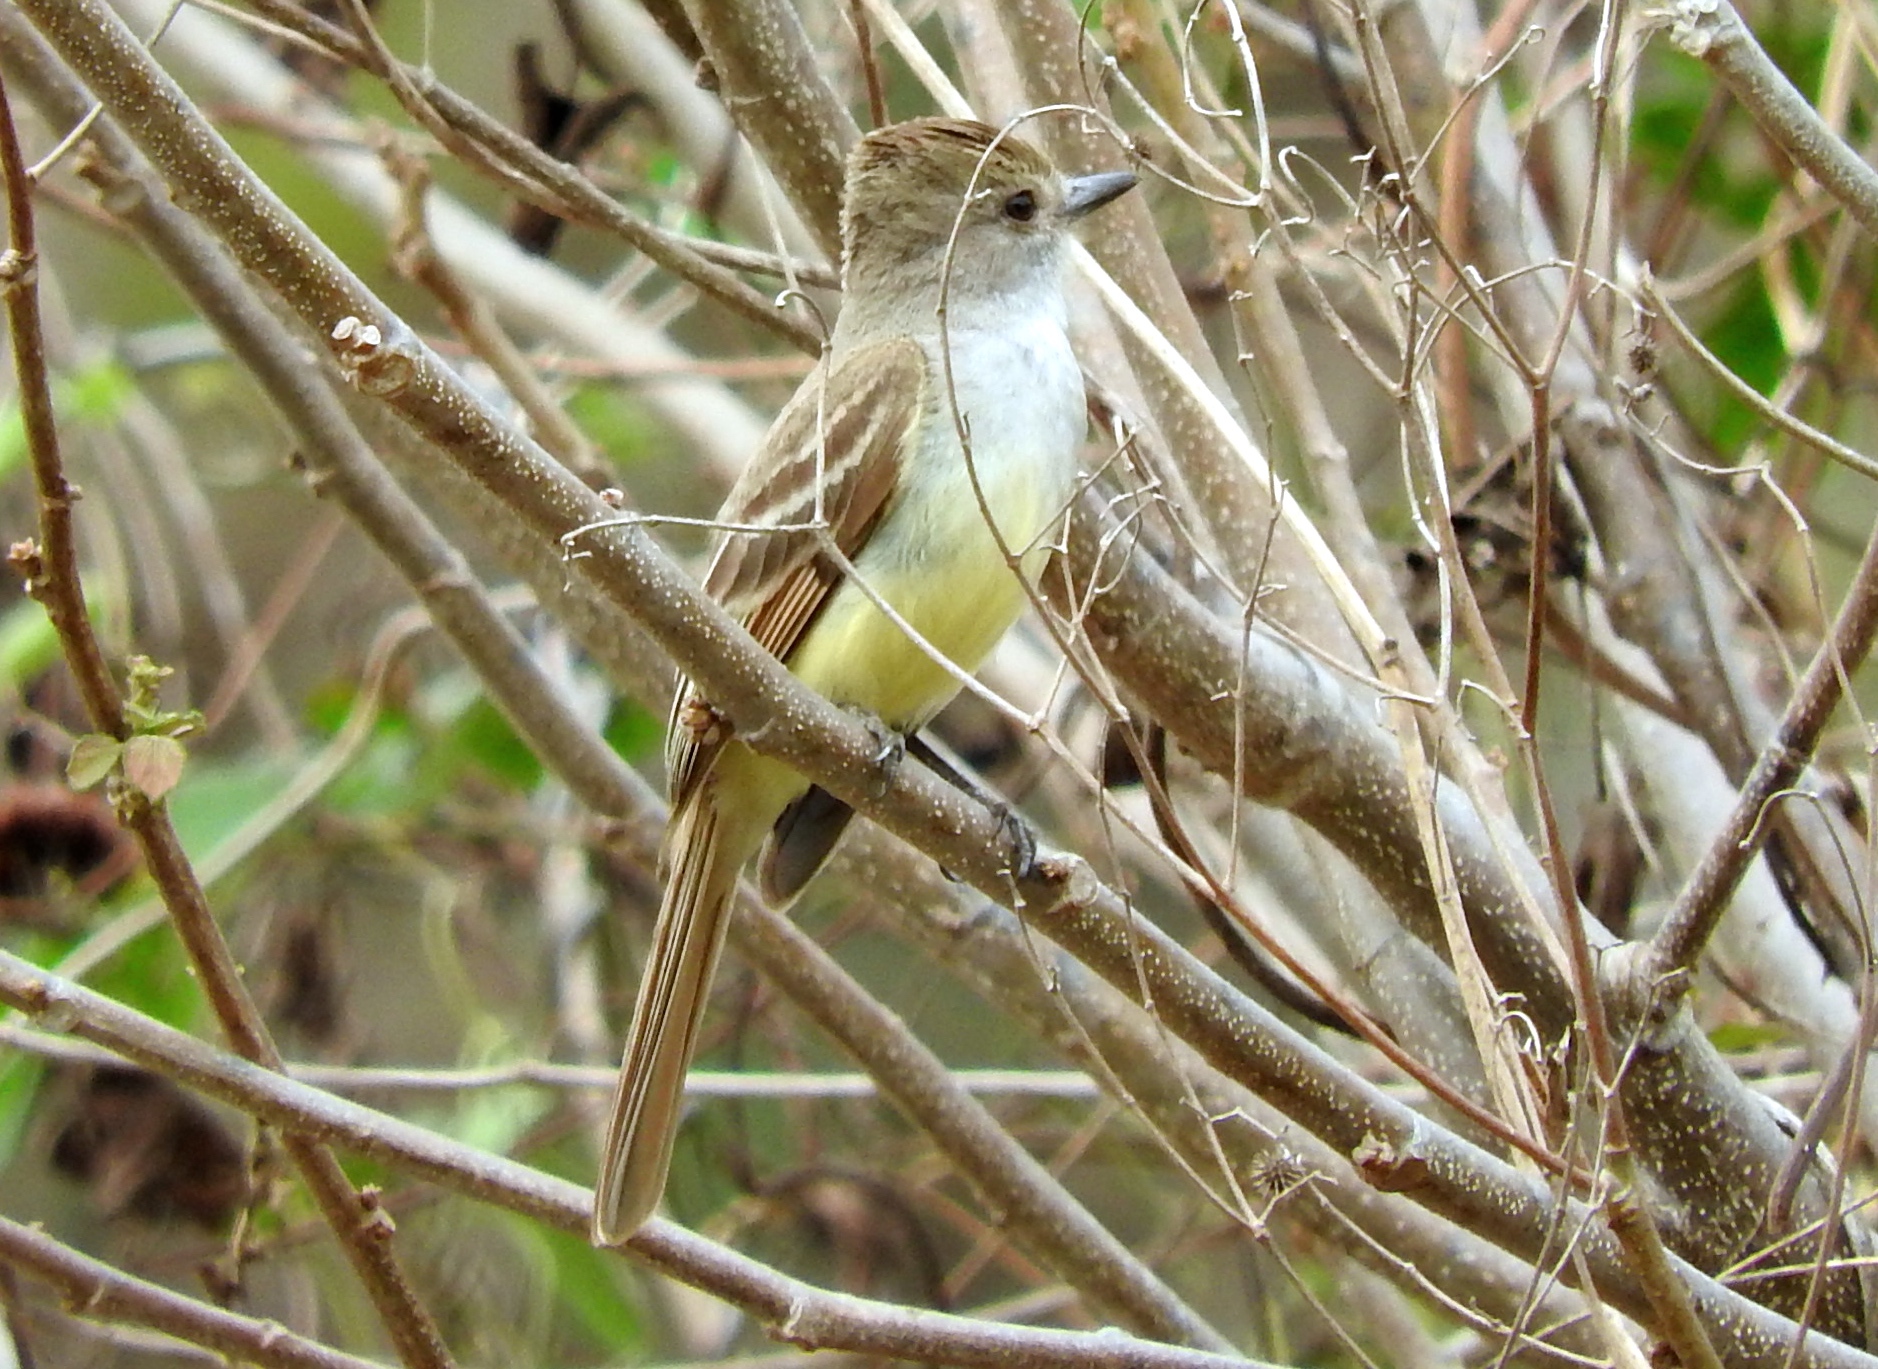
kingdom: Animalia
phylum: Chordata
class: Aves
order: Passeriformes
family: Tyrannidae
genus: Myiarchus
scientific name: Myiarchus
